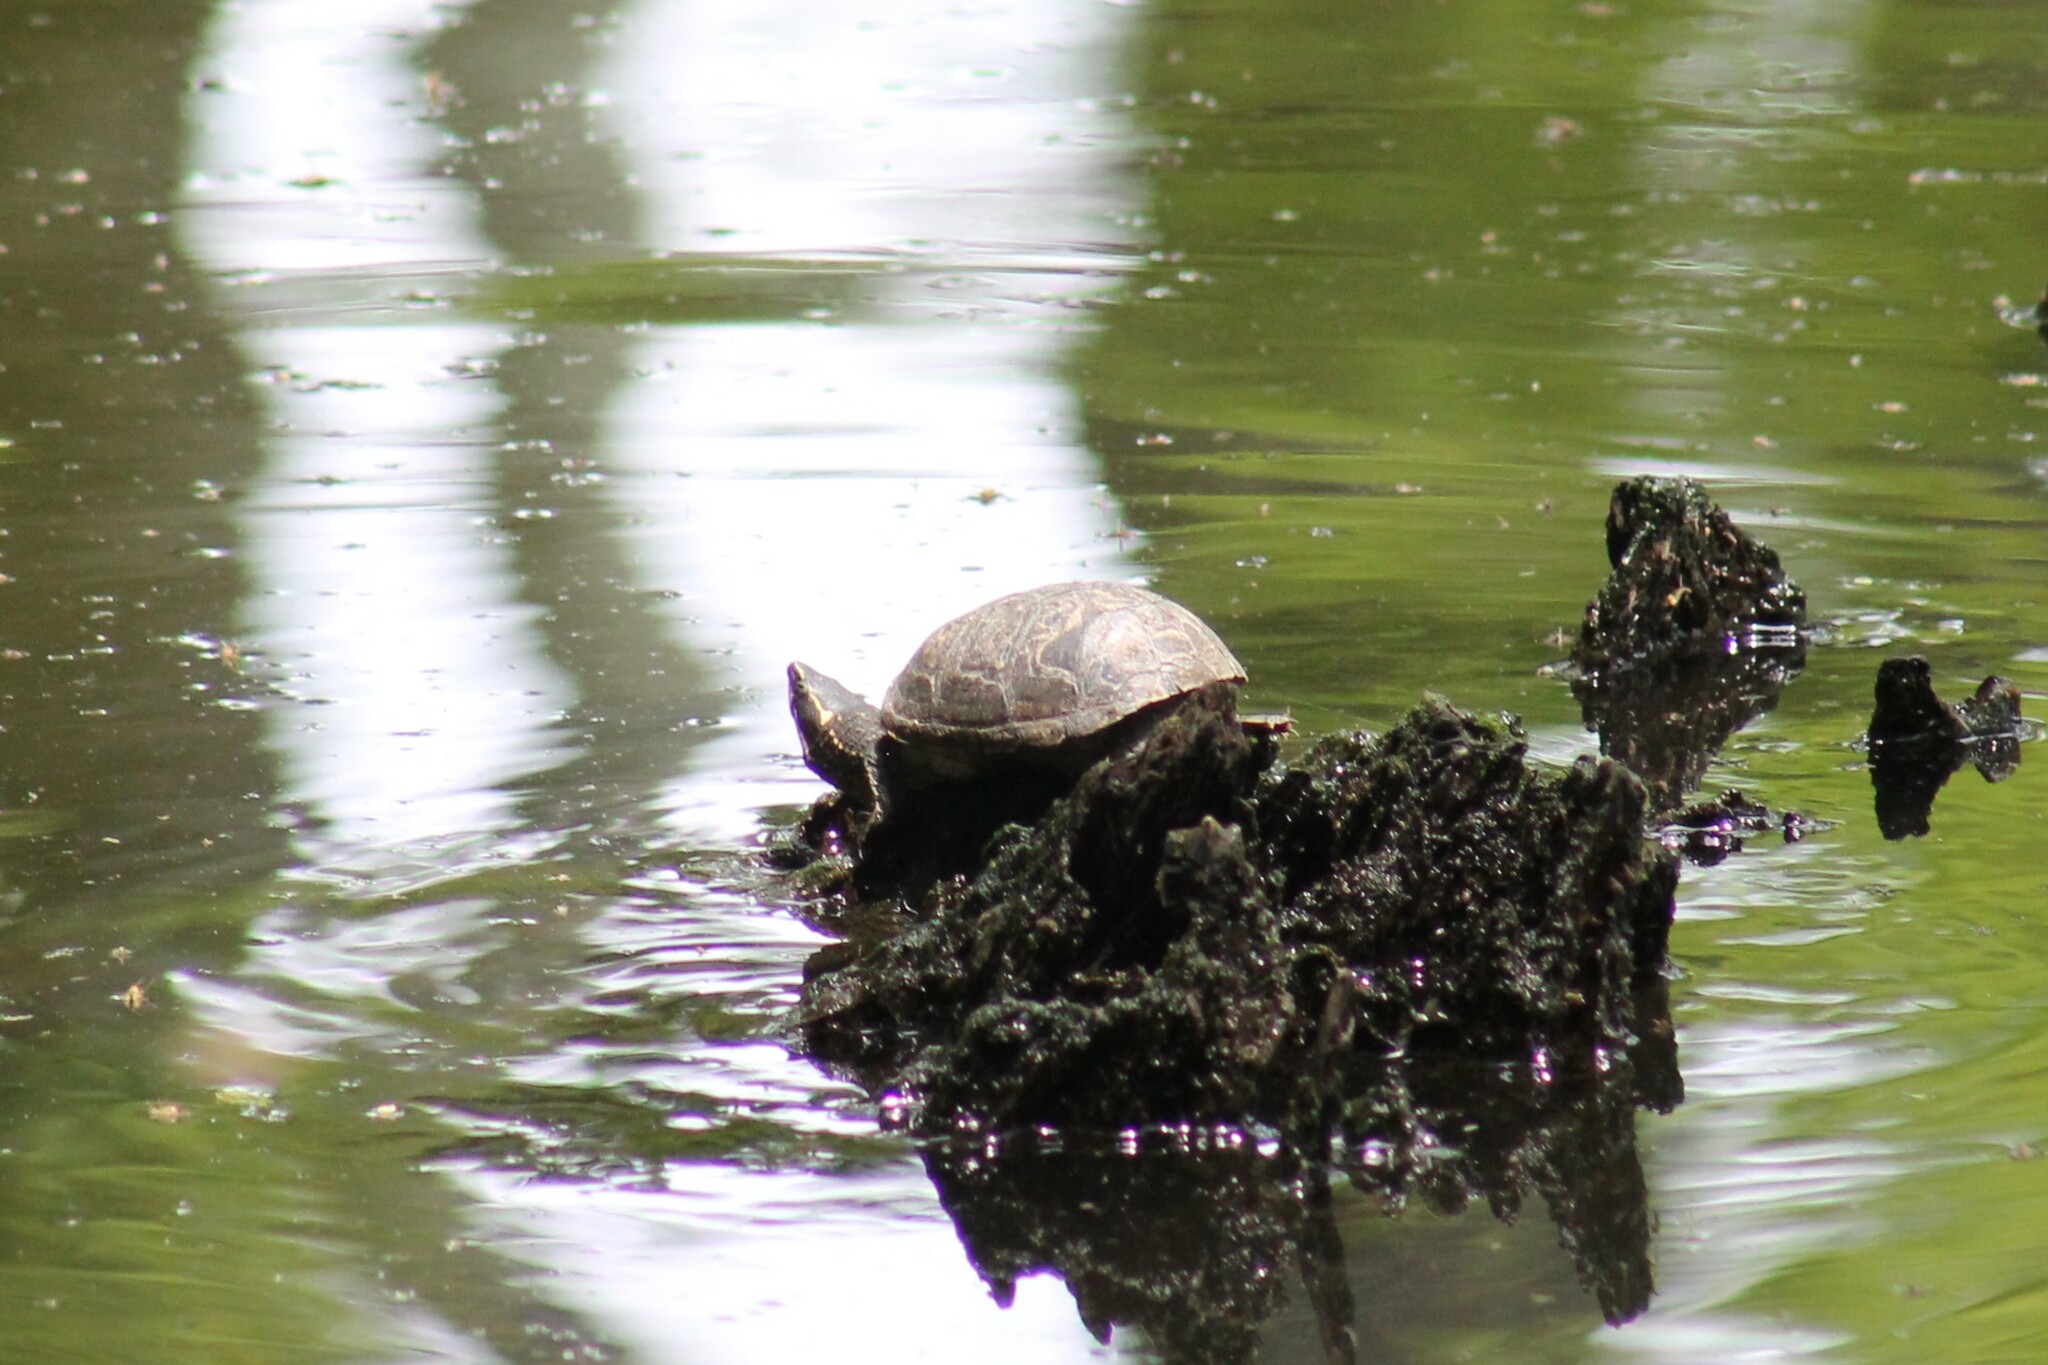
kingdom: Animalia
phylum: Chordata
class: Testudines
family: Kinosternidae
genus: Sternotherus
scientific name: Sternotherus odoratus
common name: Common musk turtle
